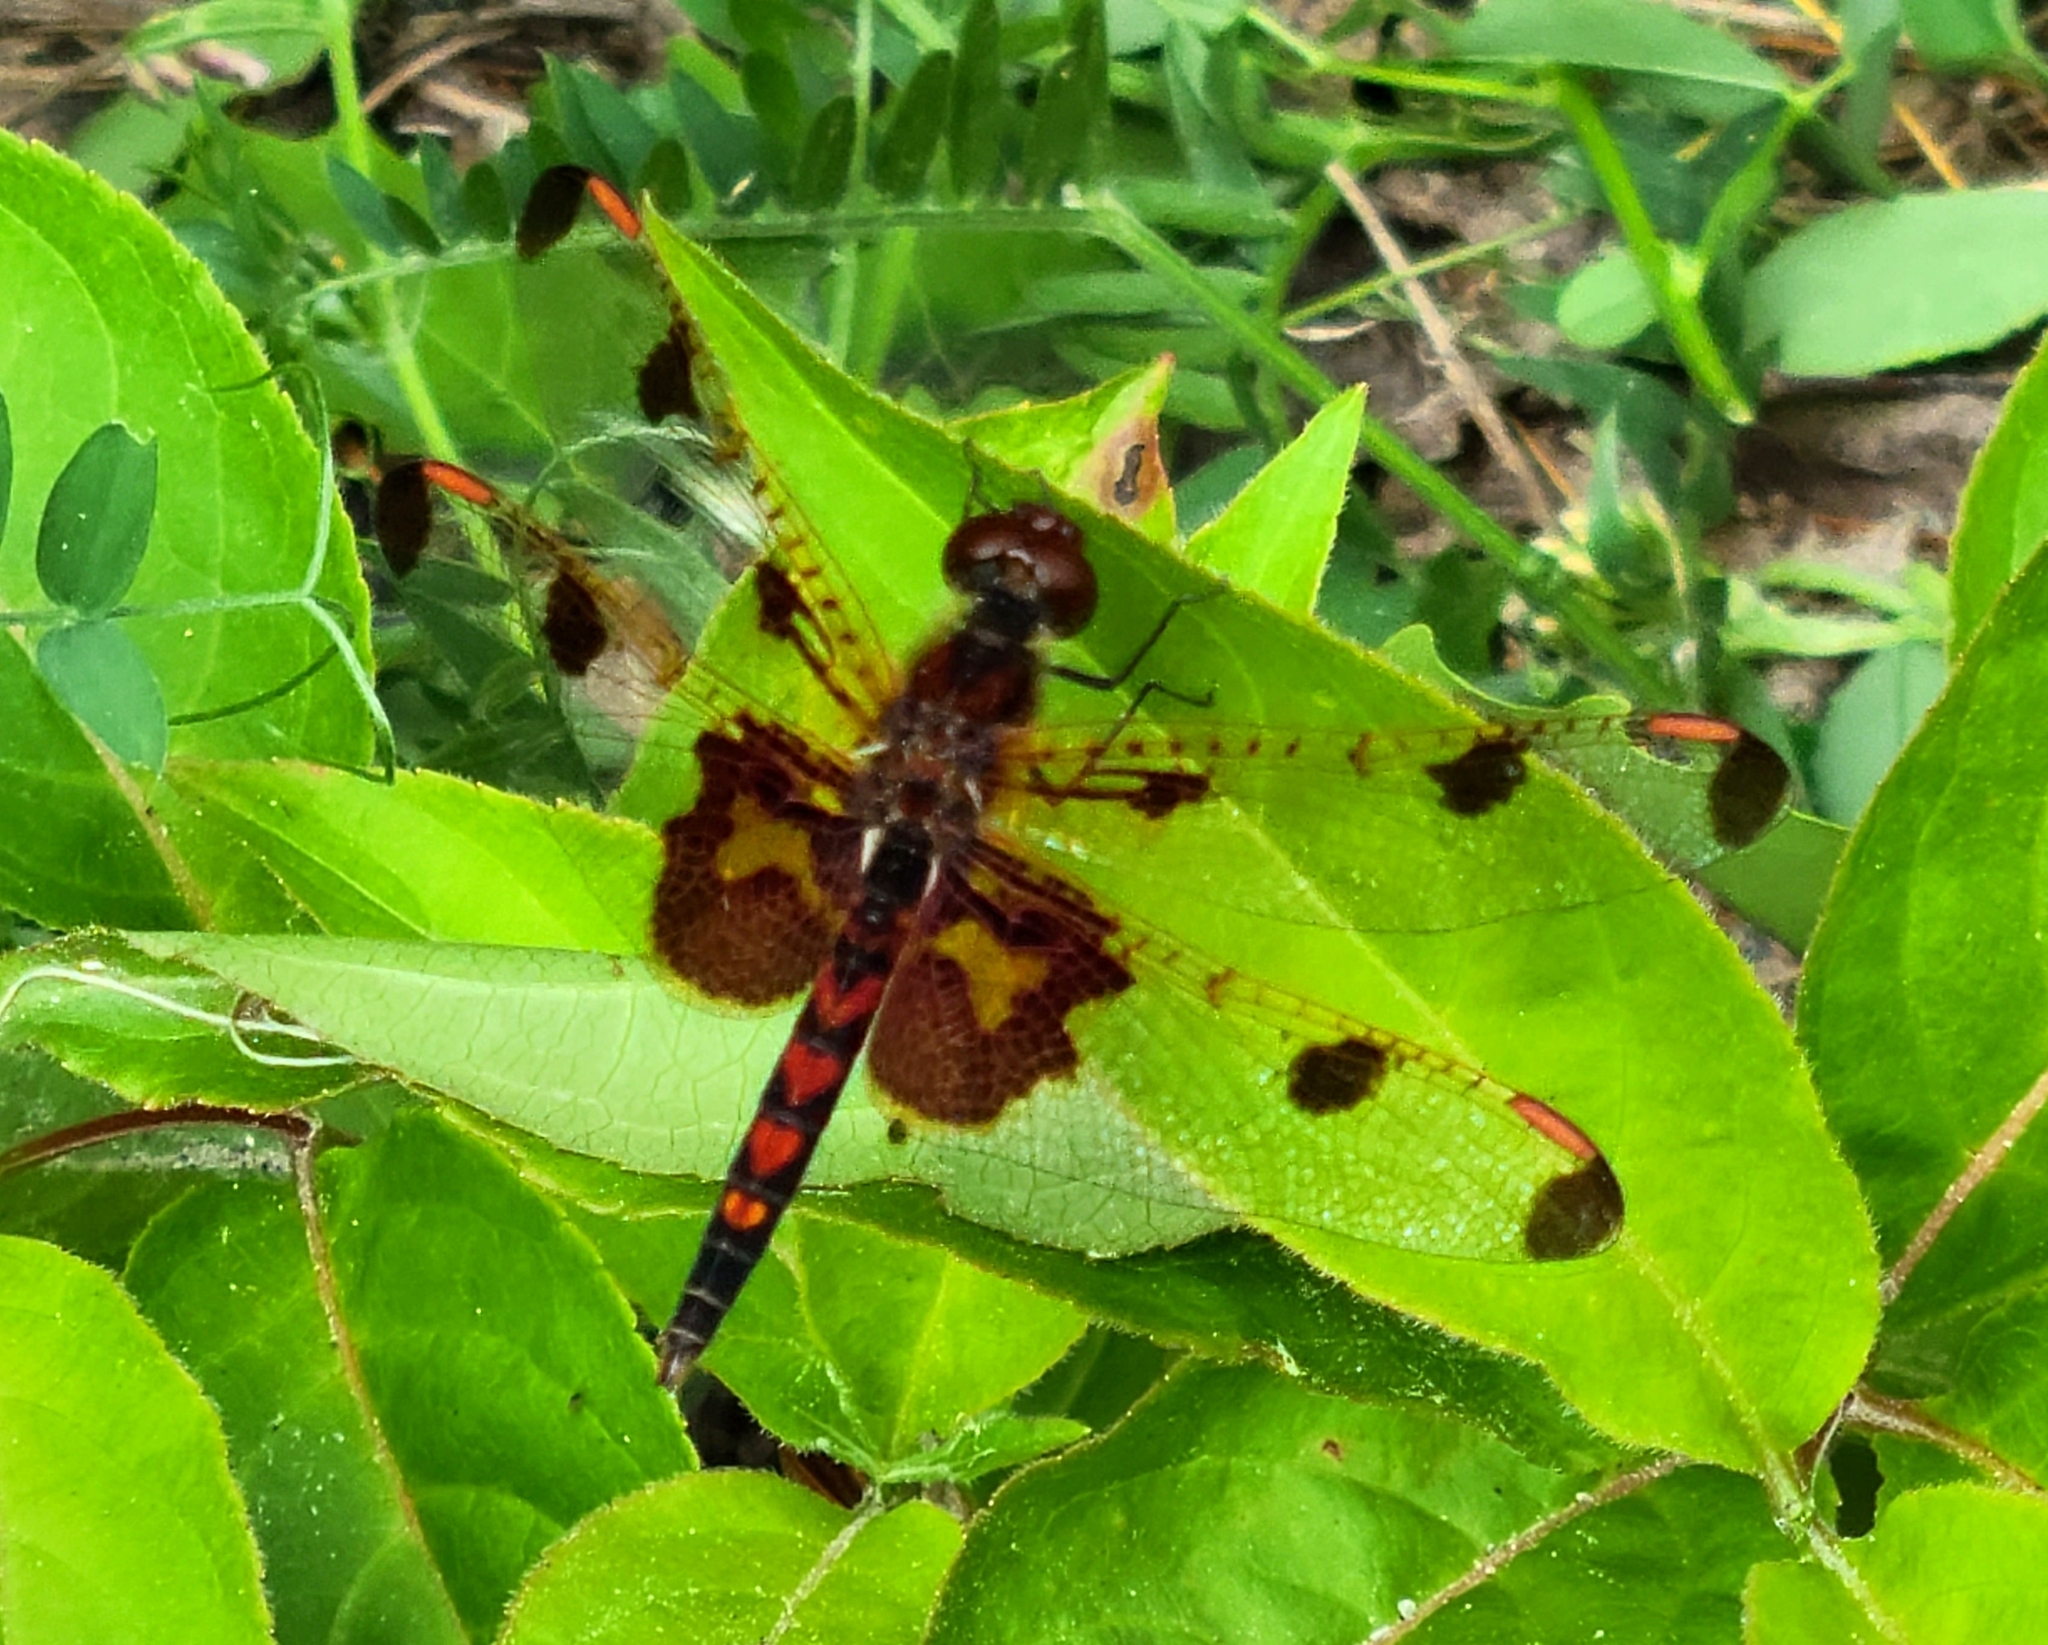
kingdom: Animalia
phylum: Arthropoda
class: Insecta
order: Odonata
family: Libellulidae
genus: Celithemis
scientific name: Celithemis elisa
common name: Calico pennant
